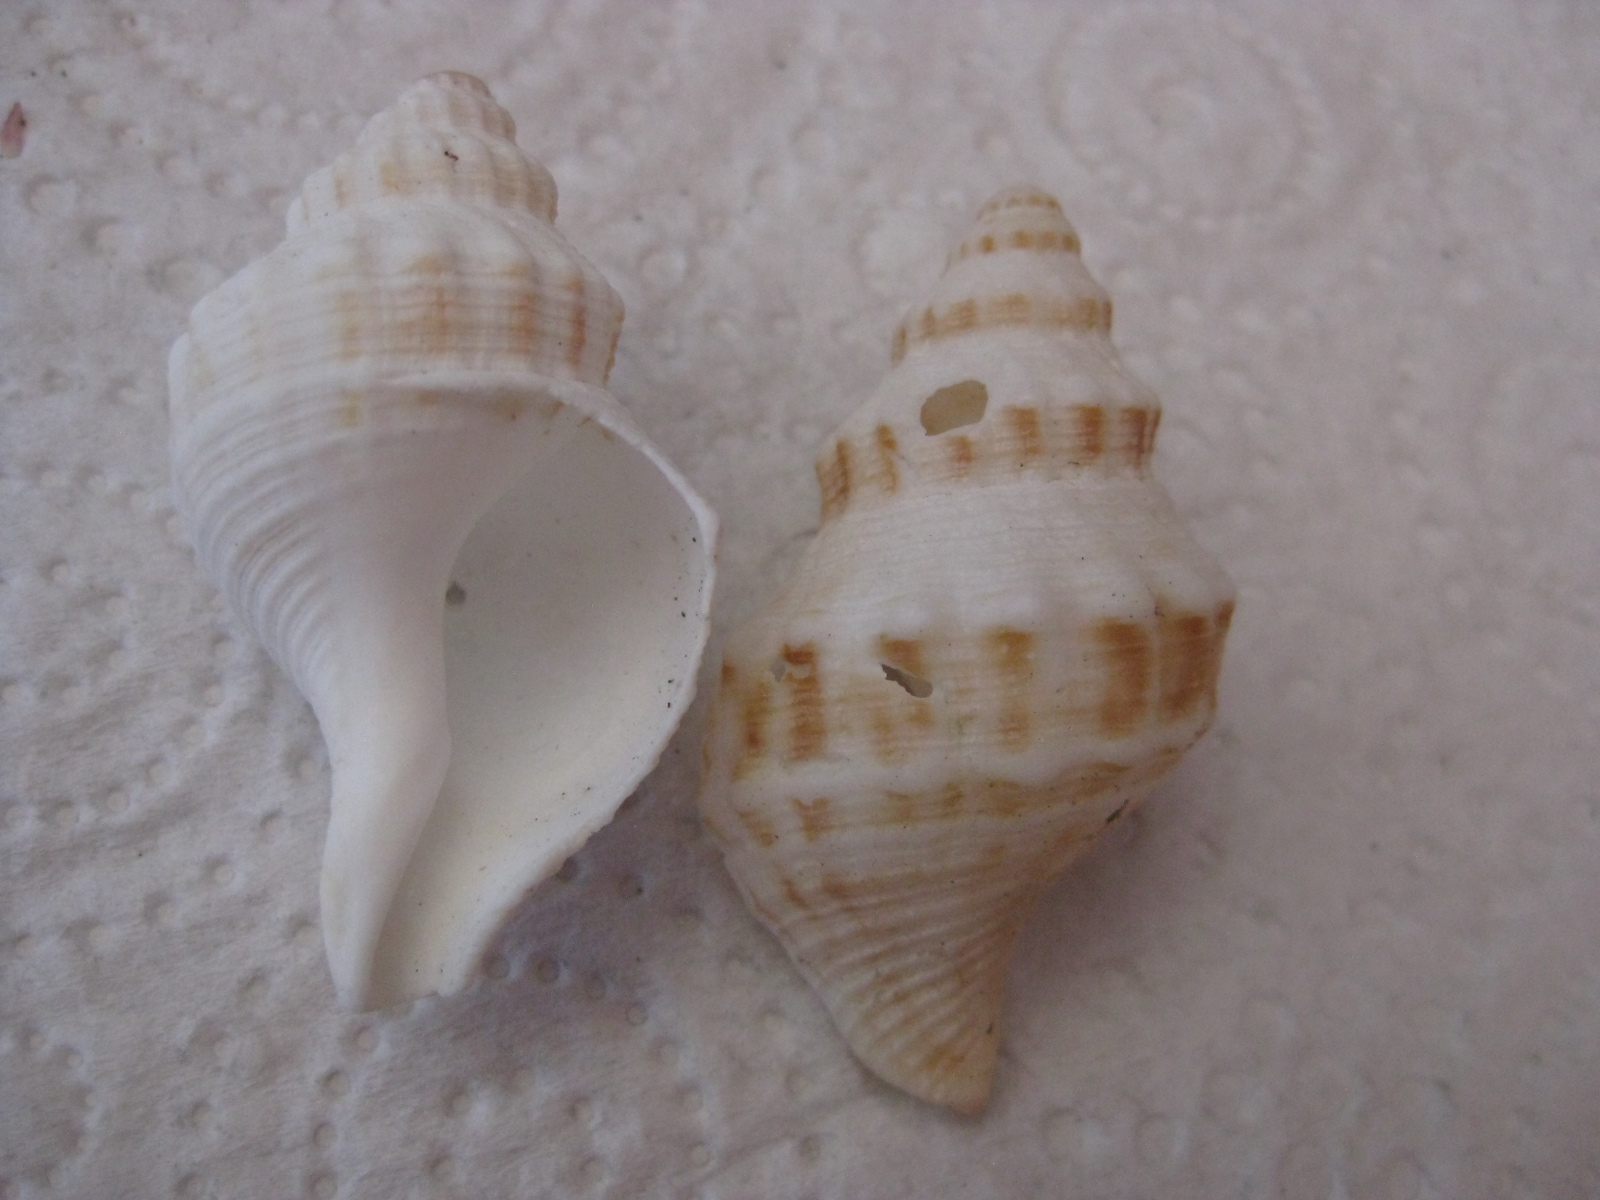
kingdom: Animalia
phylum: Mollusca
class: Gastropoda
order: Neogastropoda
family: Prosiphonidae
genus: Austrofusus
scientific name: Austrofusus glans
